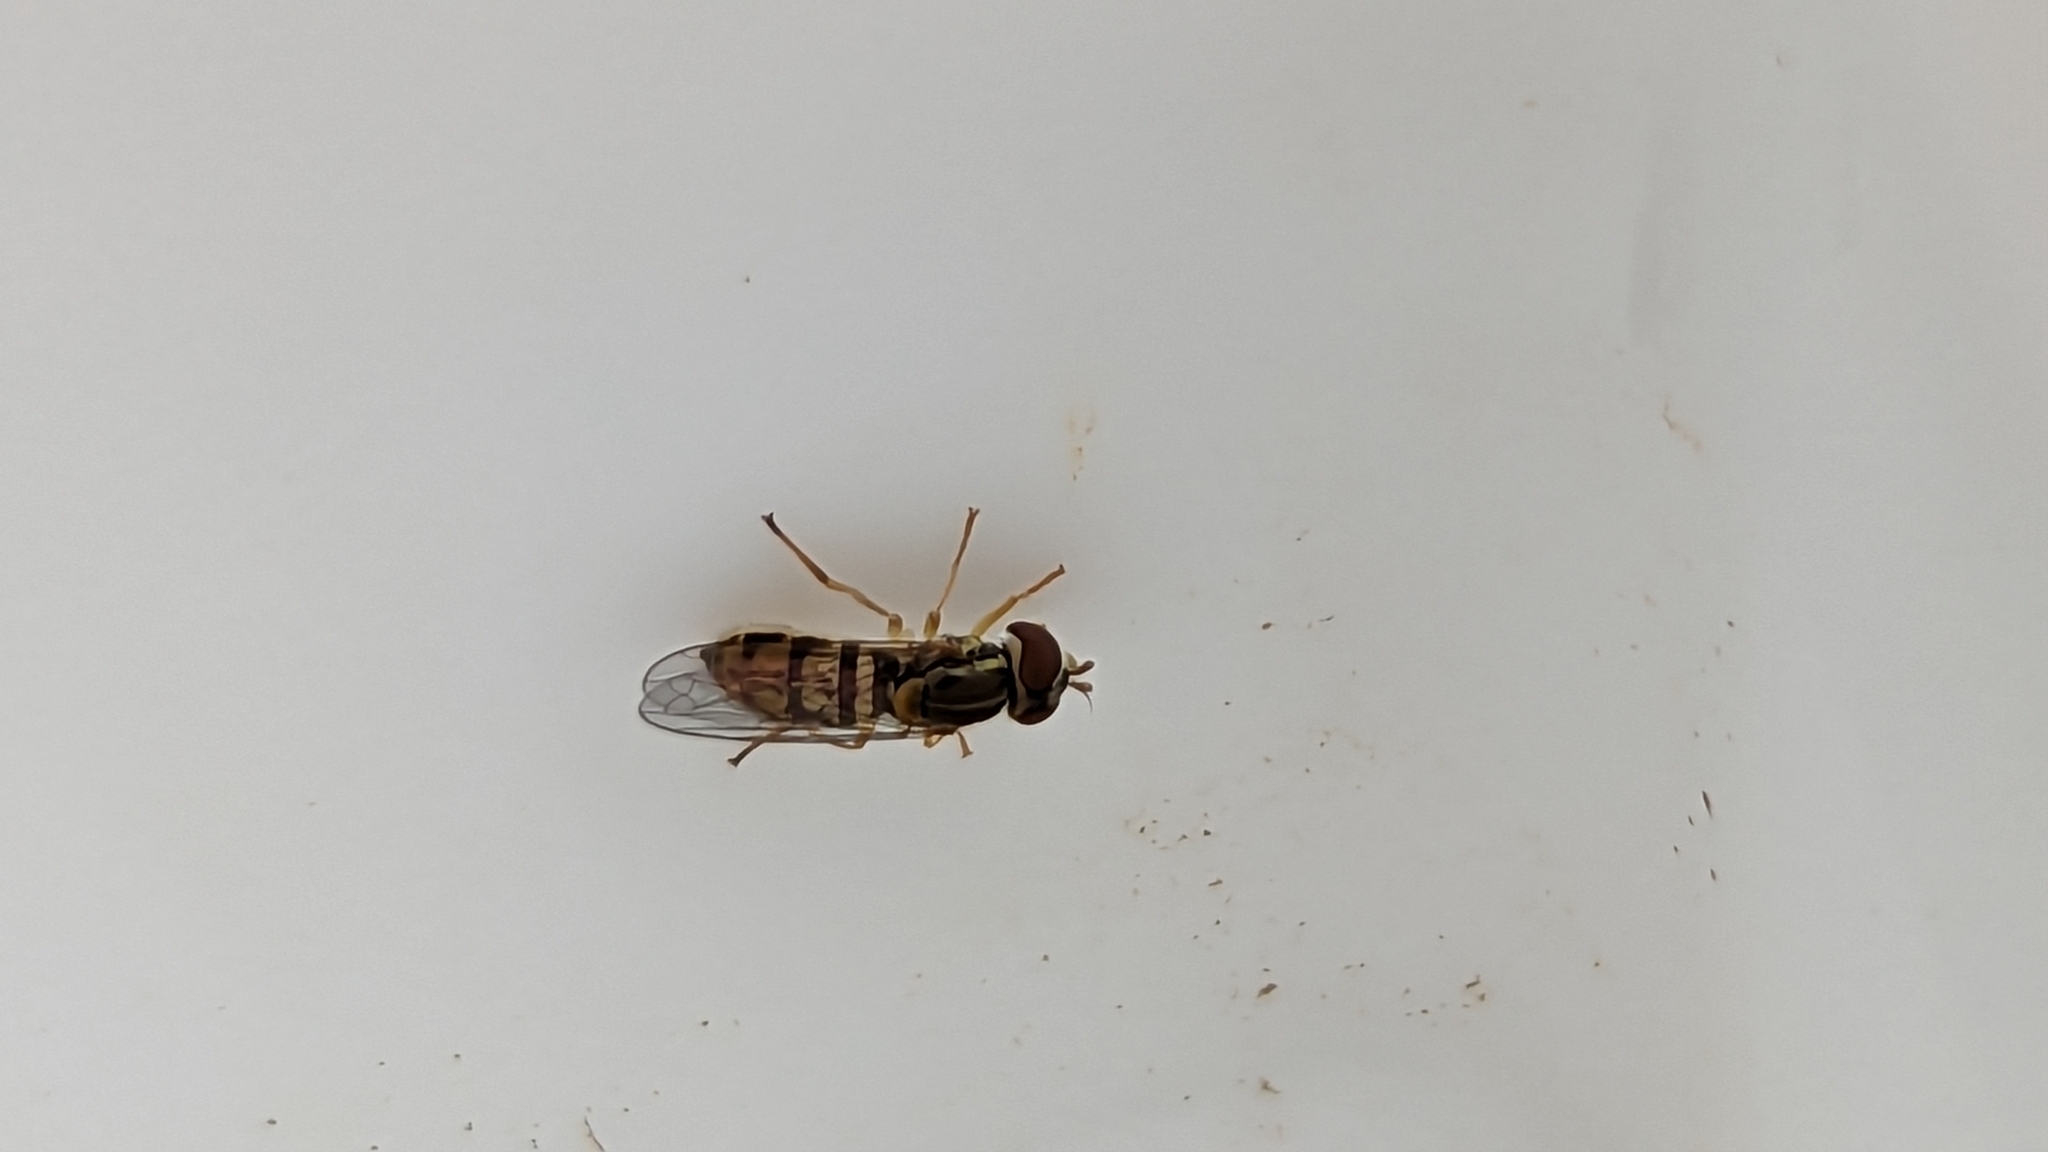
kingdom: Animalia
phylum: Arthropoda
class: Insecta
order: Diptera
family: Syrphidae
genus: Toxomerus
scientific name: Toxomerus marginatus
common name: Syrphid fly
